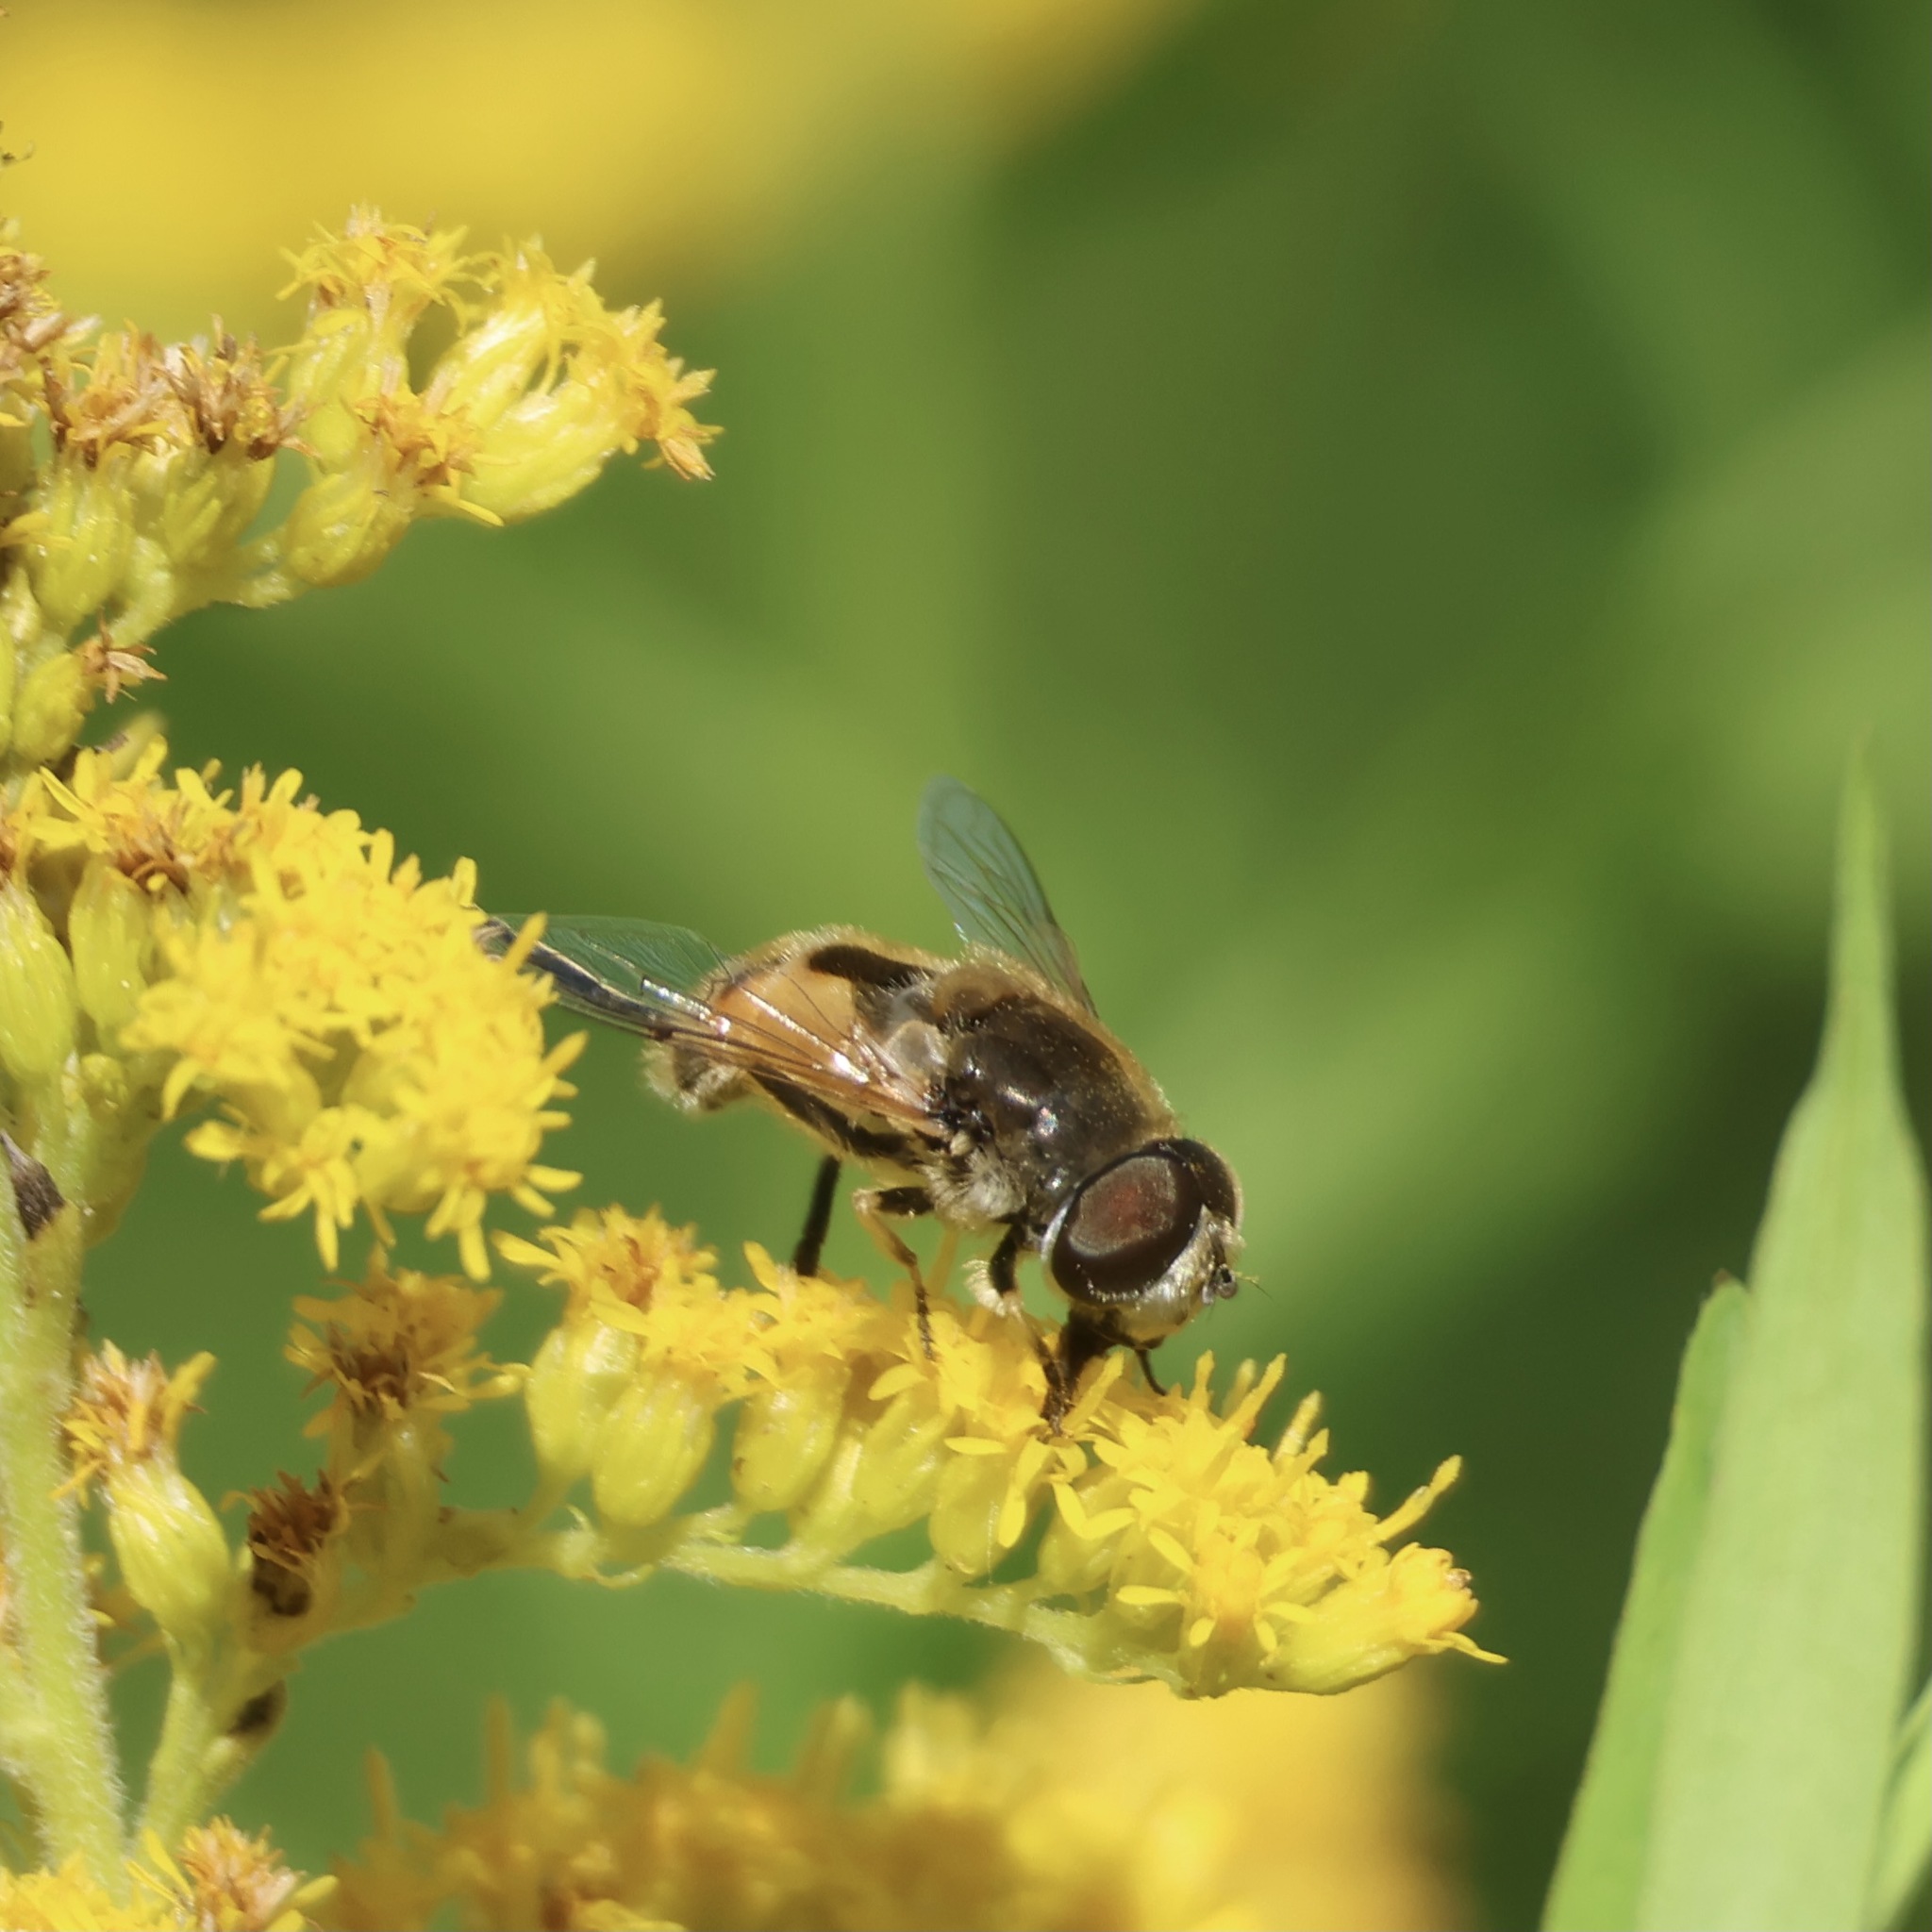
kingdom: Animalia
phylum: Arthropoda
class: Insecta
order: Diptera
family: Syrphidae
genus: Eristalis
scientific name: Eristalis arbustorum
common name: Hover fly
